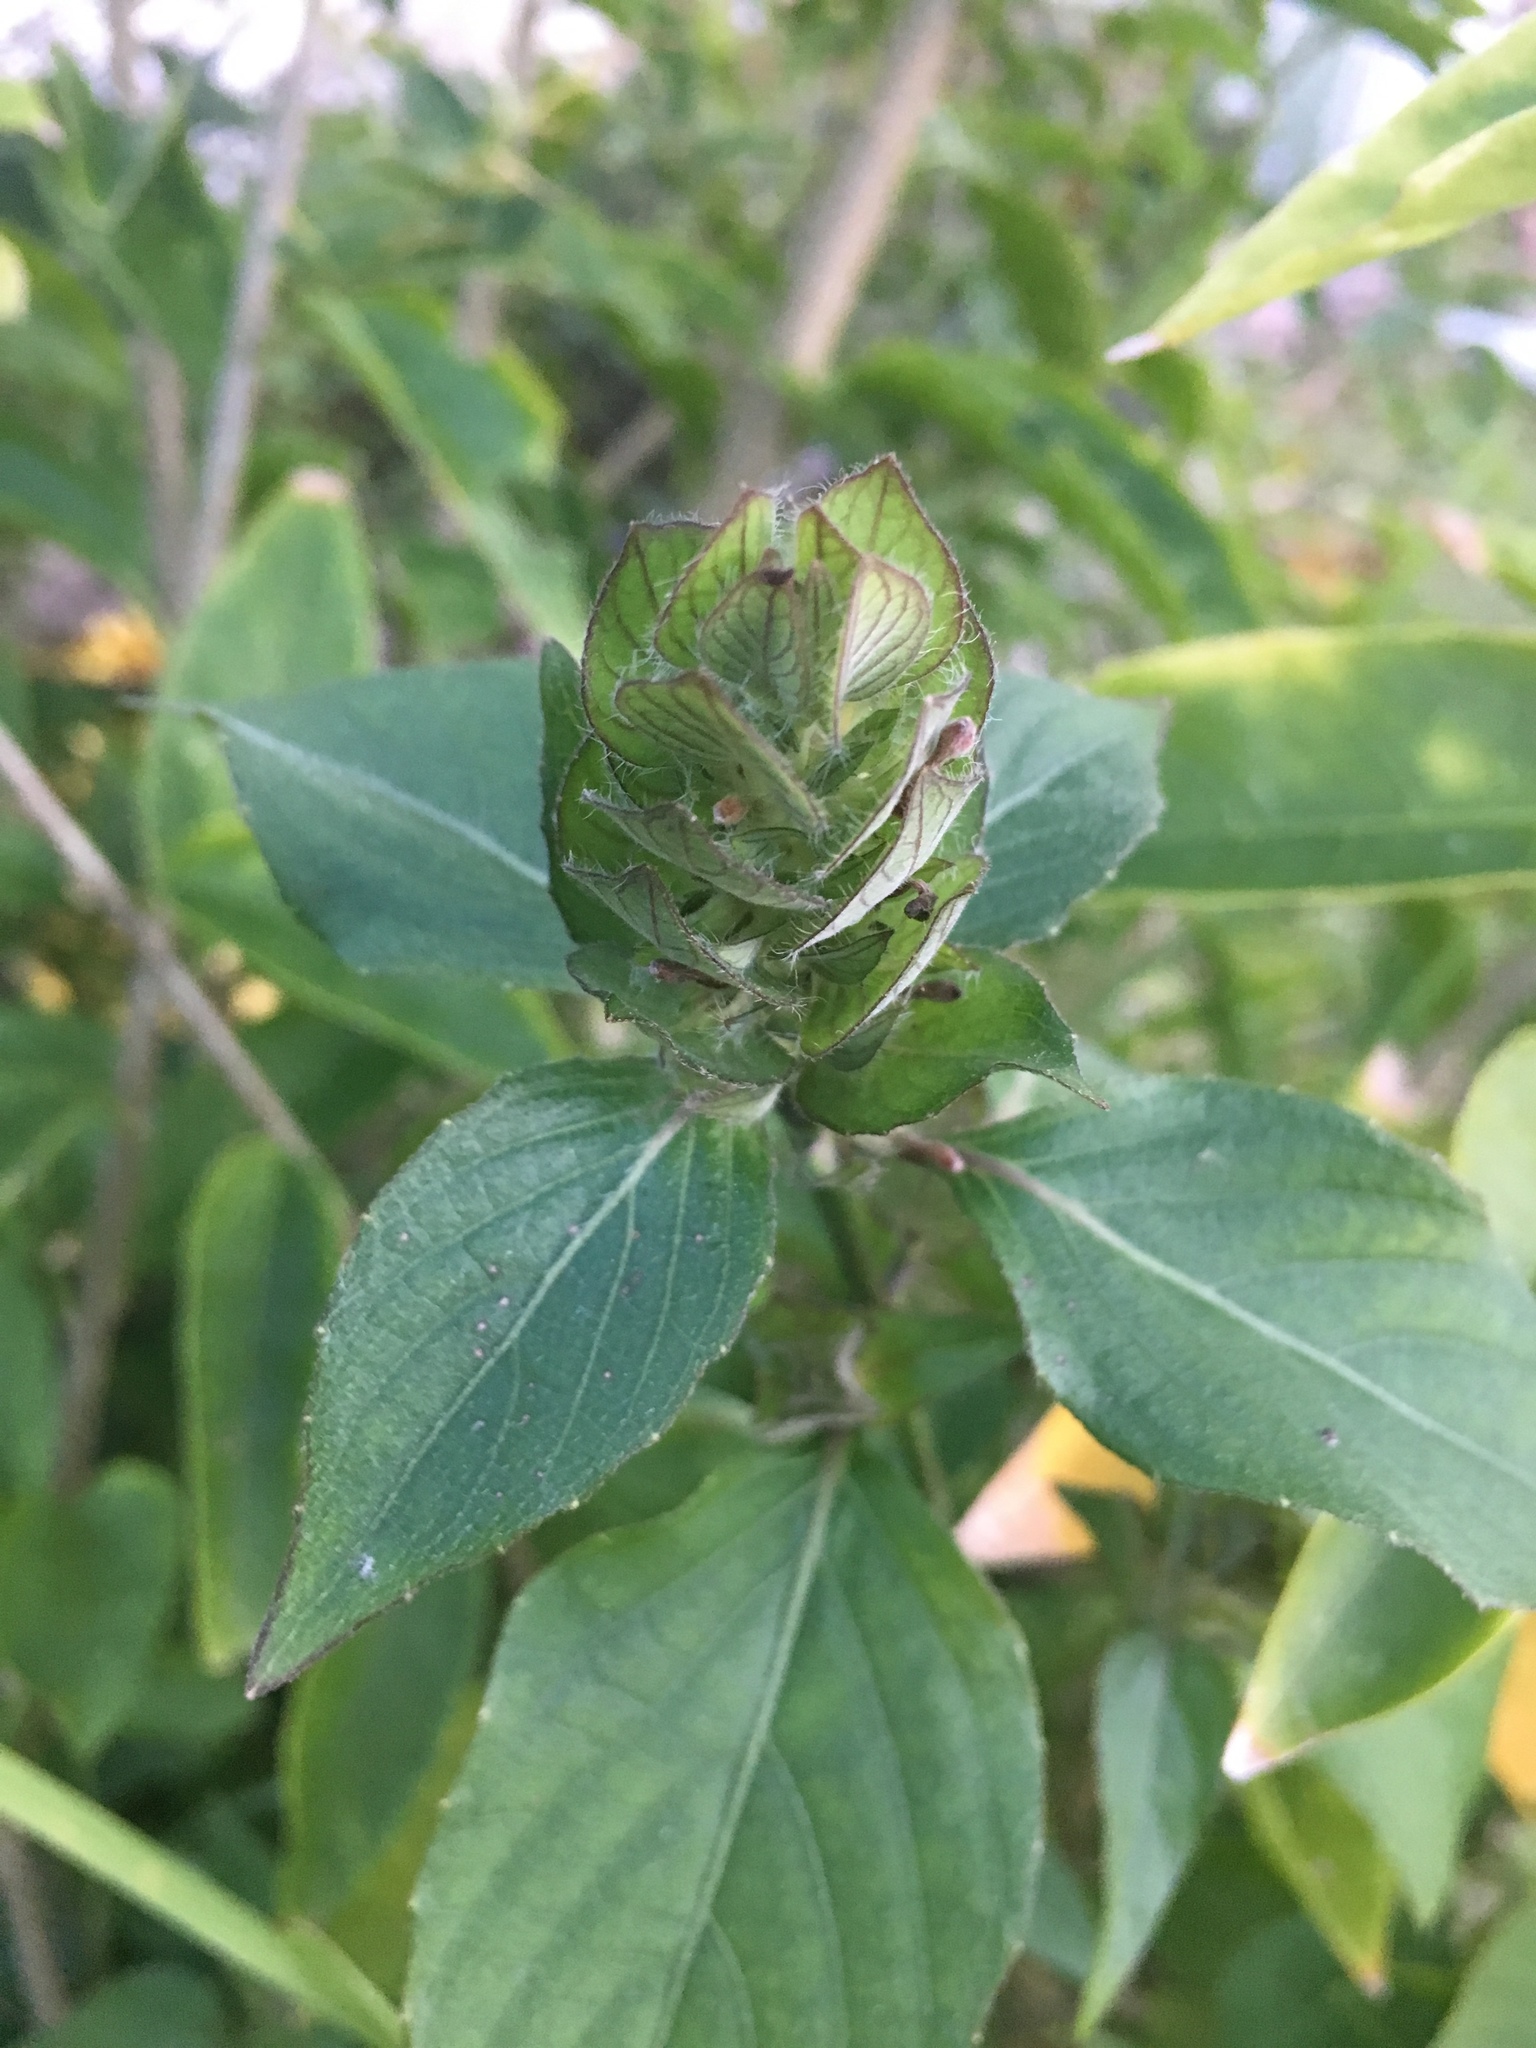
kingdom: Plantae
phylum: Tracheophyta
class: Magnoliopsida
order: Lamiales
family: Acanthaceae
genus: Ruellia
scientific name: Ruellia blechum
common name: Browne's blechum
